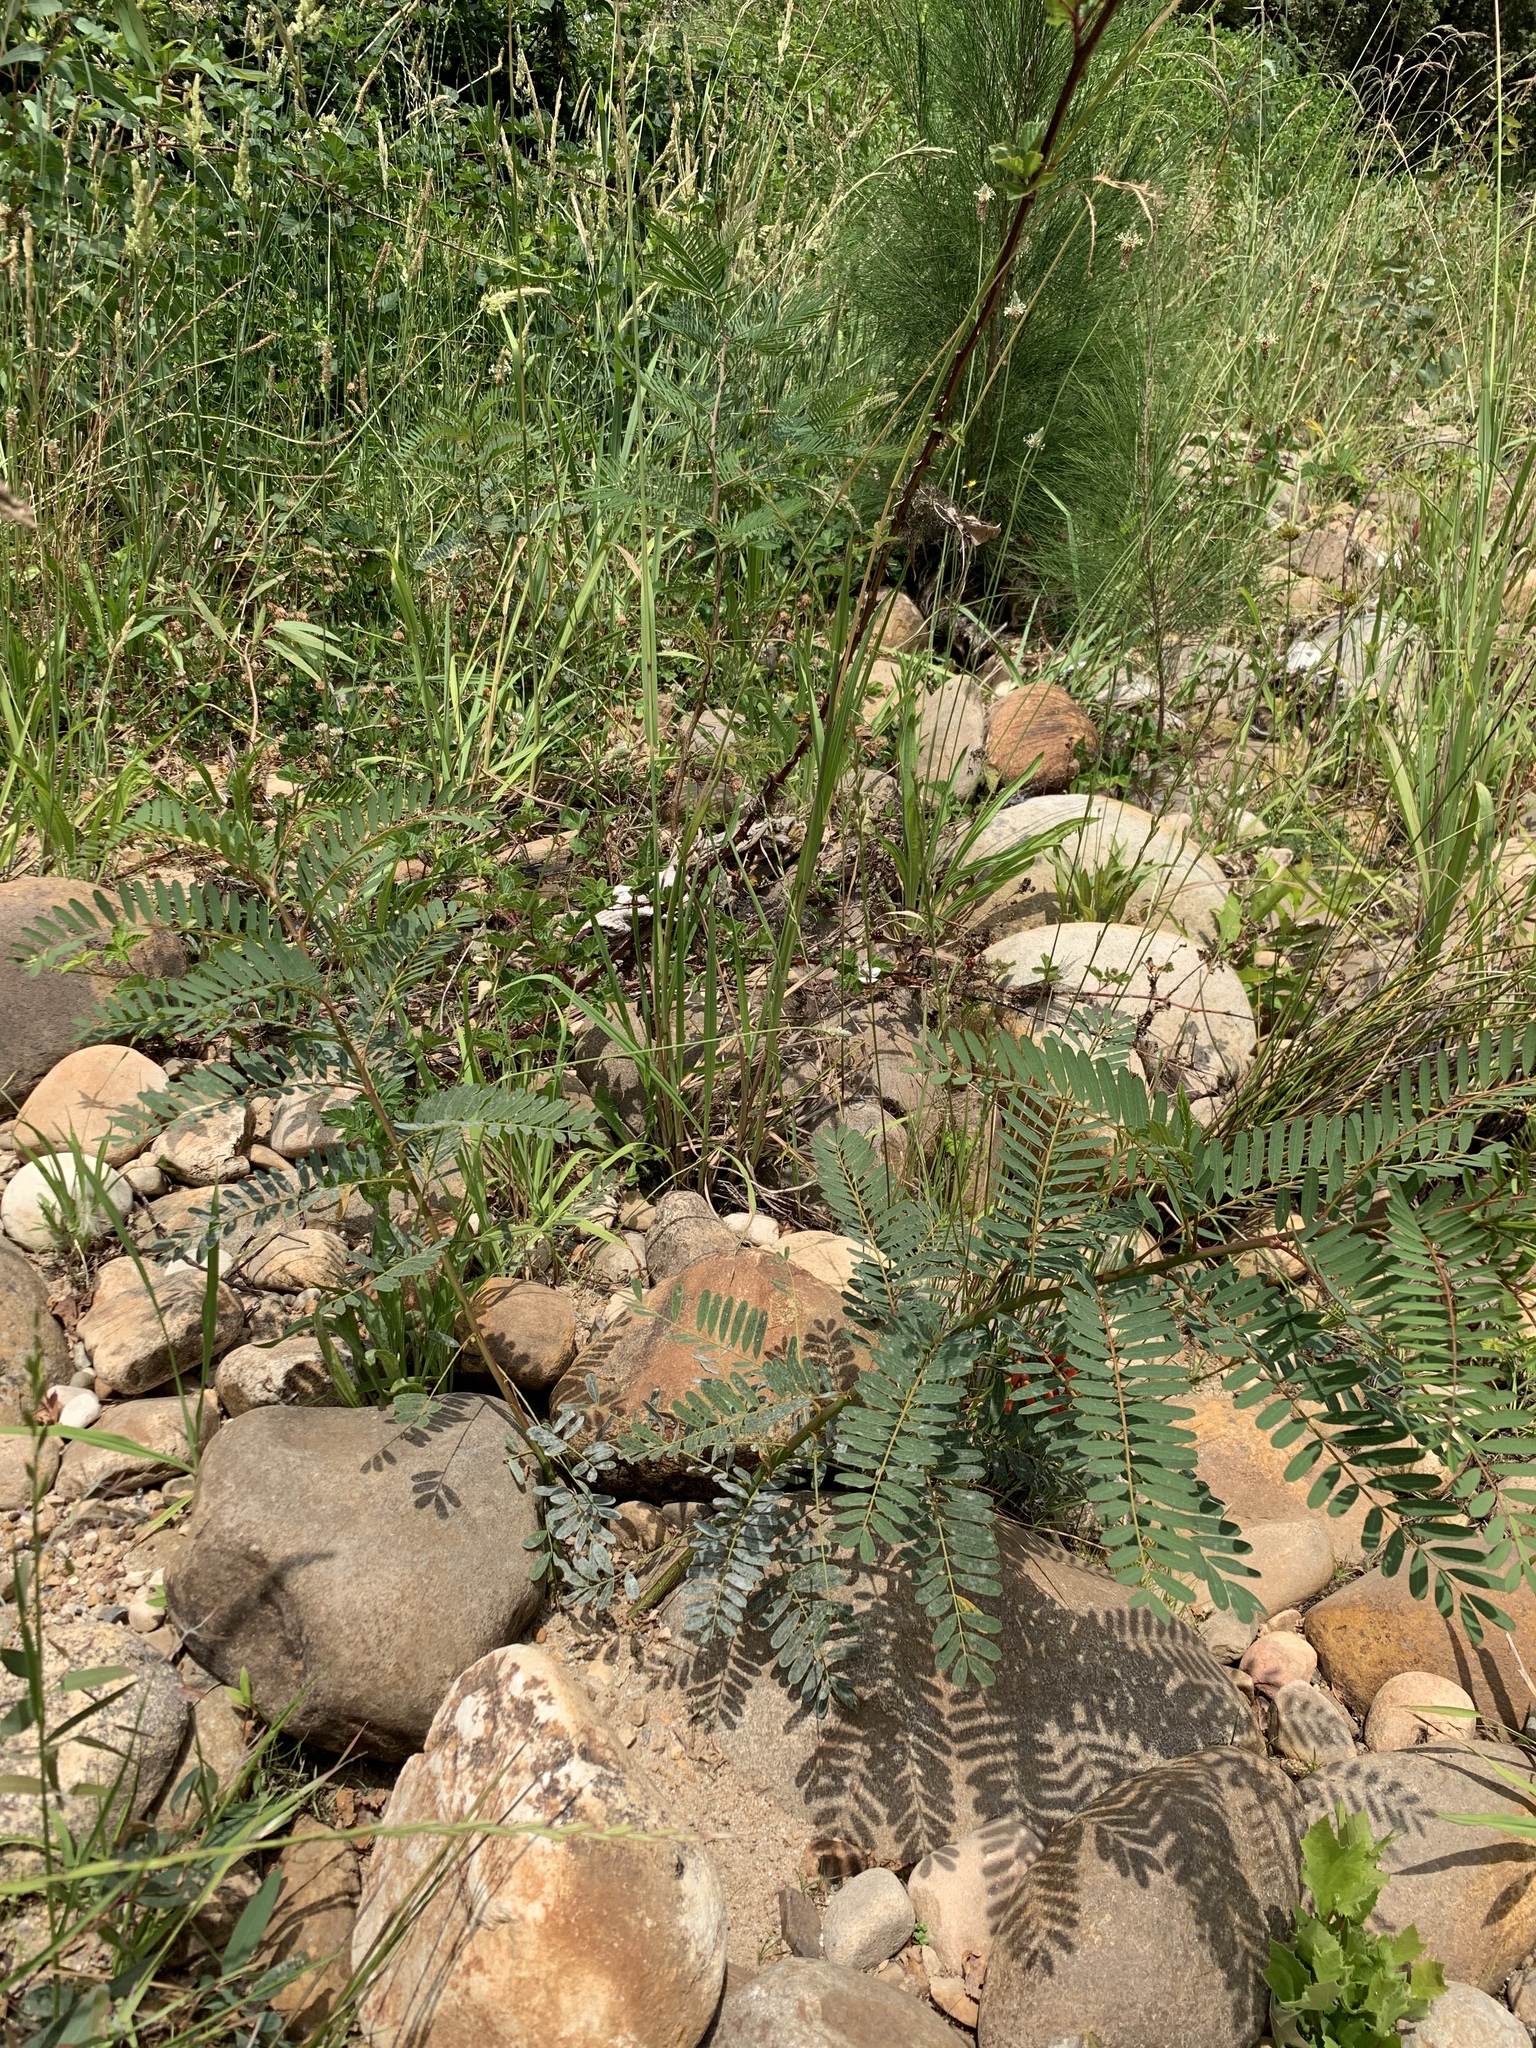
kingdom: Plantae
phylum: Tracheophyta
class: Magnoliopsida
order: Fabales
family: Fabaceae
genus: Sesbania
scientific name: Sesbania punicea
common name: Rattlebox
